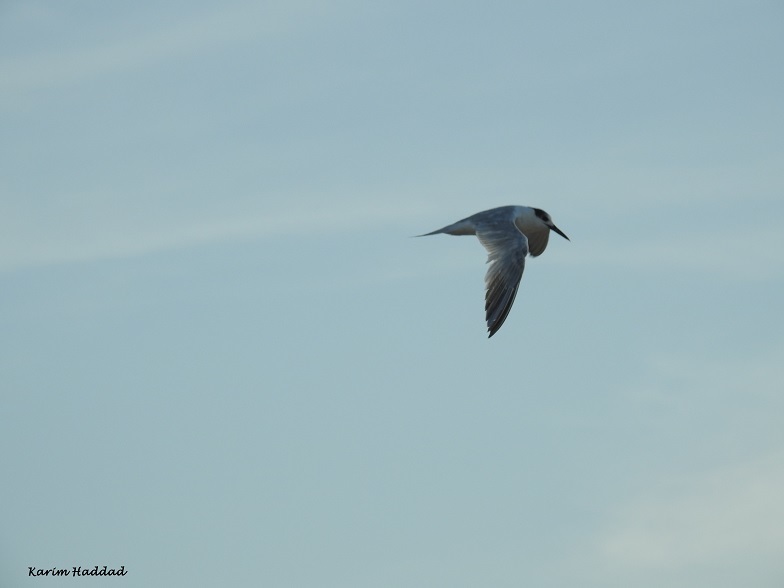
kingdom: Animalia
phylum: Chordata
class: Aves
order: Charadriiformes
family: Laridae
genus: Thalasseus
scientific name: Thalasseus sandvicensis
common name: Sandwich tern
